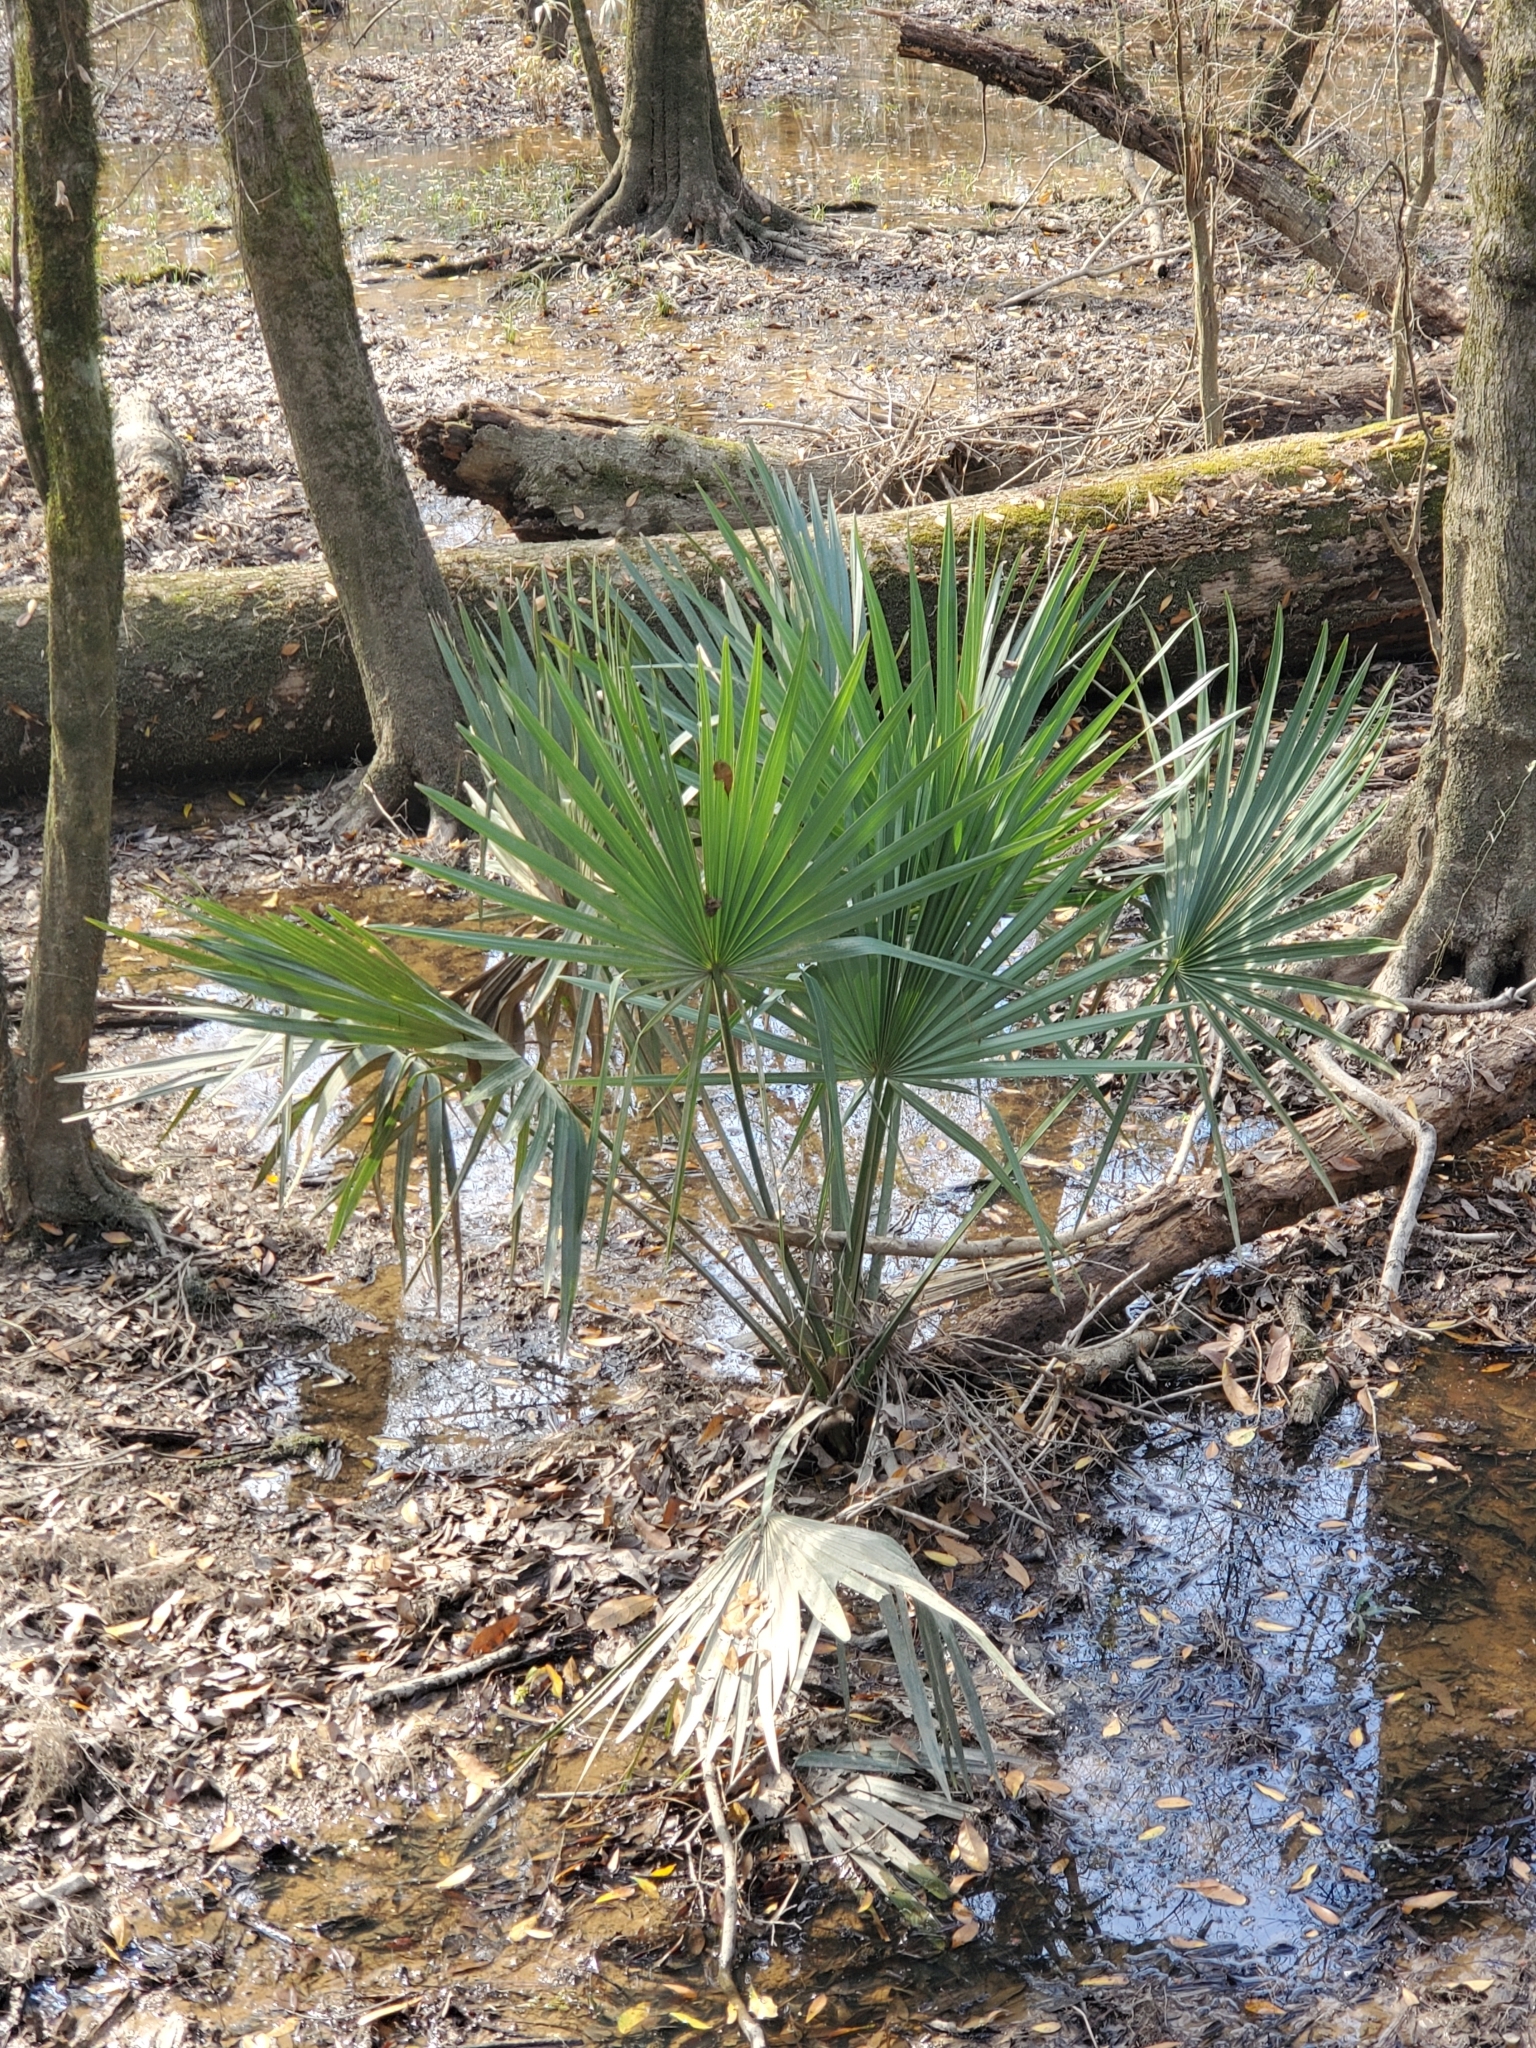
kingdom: Plantae
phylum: Tracheophyta
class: Liliopsida
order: Arecales
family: Arecaceae
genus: Sabal
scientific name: Sabal minor
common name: Dwarf palmetto
